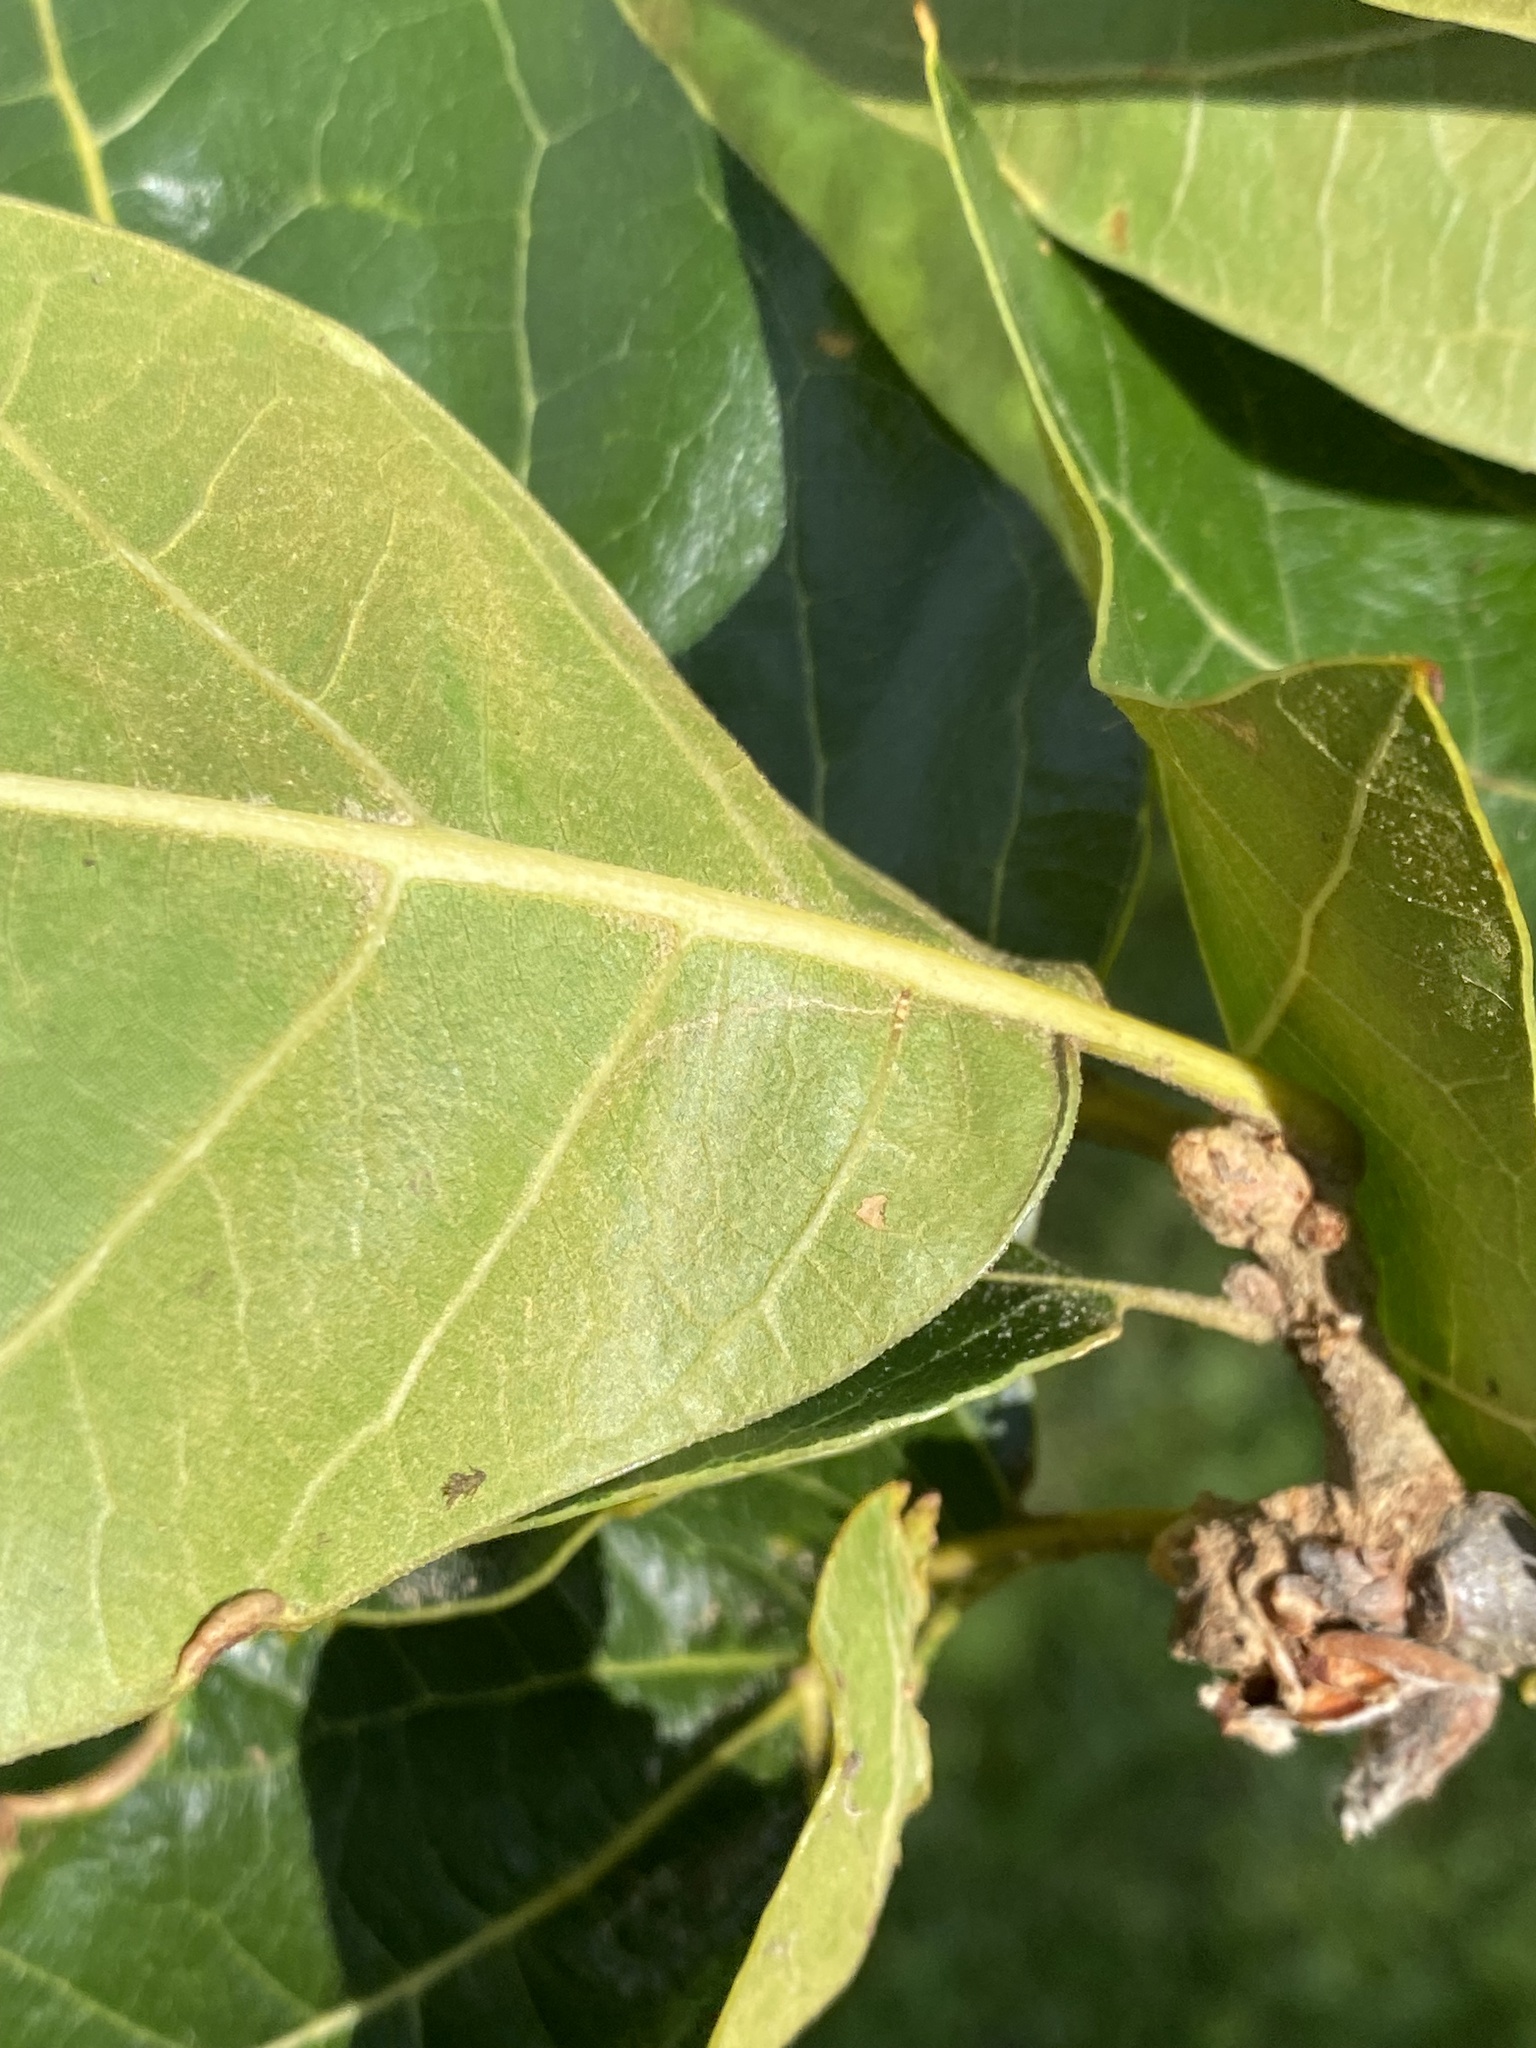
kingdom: Plantae
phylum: Tracheophyta
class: Magnoliopsida
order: Fagales
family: Fagaceae
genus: Quercus
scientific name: Quercus marilandica
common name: Blackjack oak
